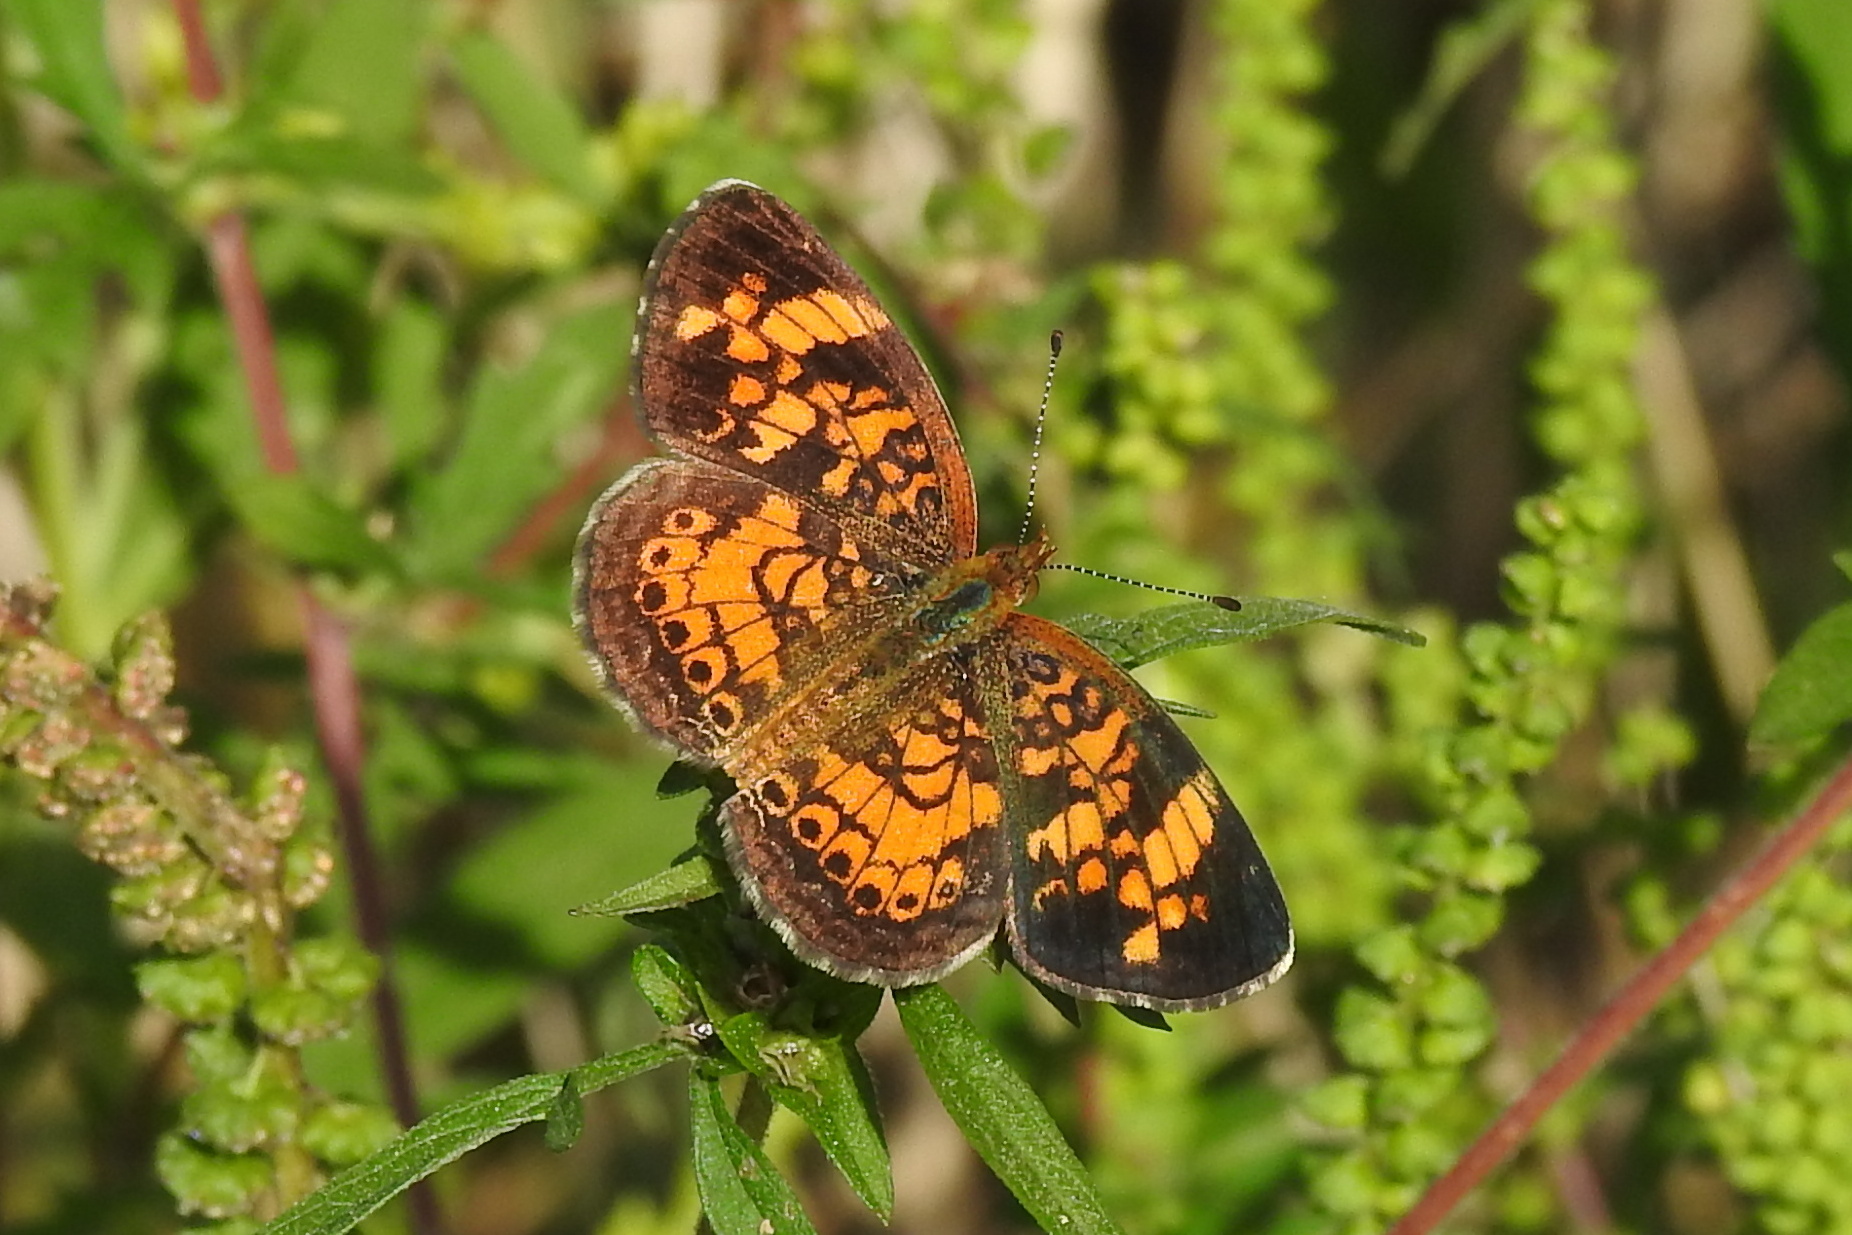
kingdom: Animalia
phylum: Arthropoda
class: Insecta
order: Lepidoptera
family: Nymphalidae
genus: Phyciodes
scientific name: Phyciodes tharos
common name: Pearl crescent
